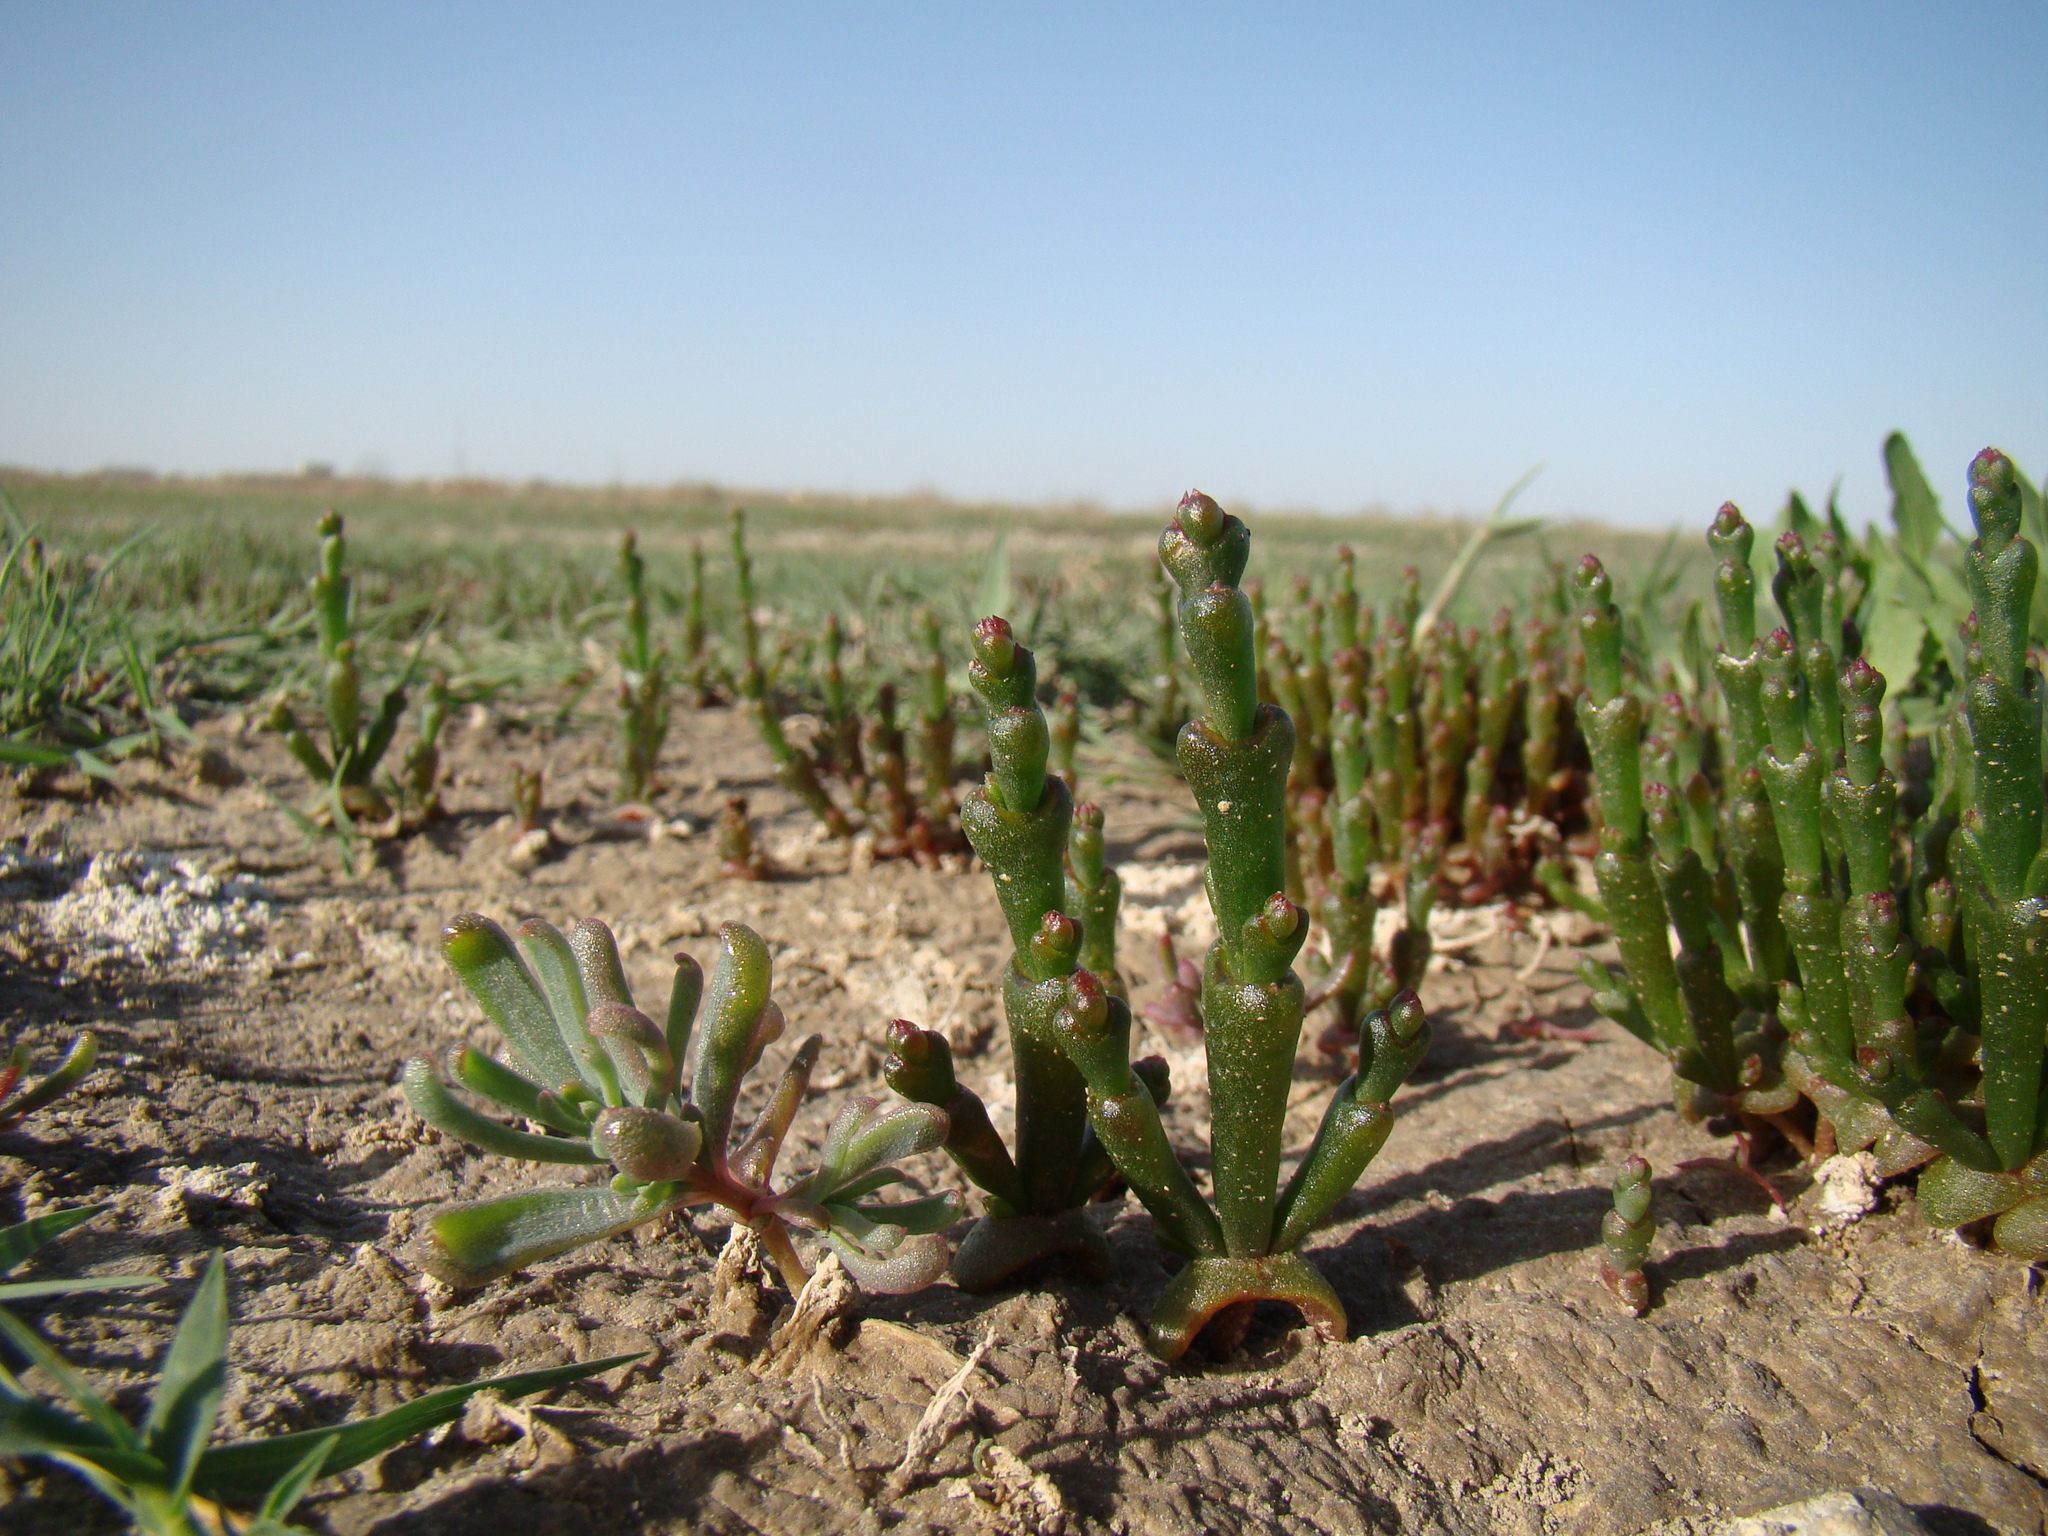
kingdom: Plantae
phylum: Tracheophyta
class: Magnoliopsida
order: Caryophyllales
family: Amaranthaceae
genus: Salicornia
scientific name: Salicornia perennans
